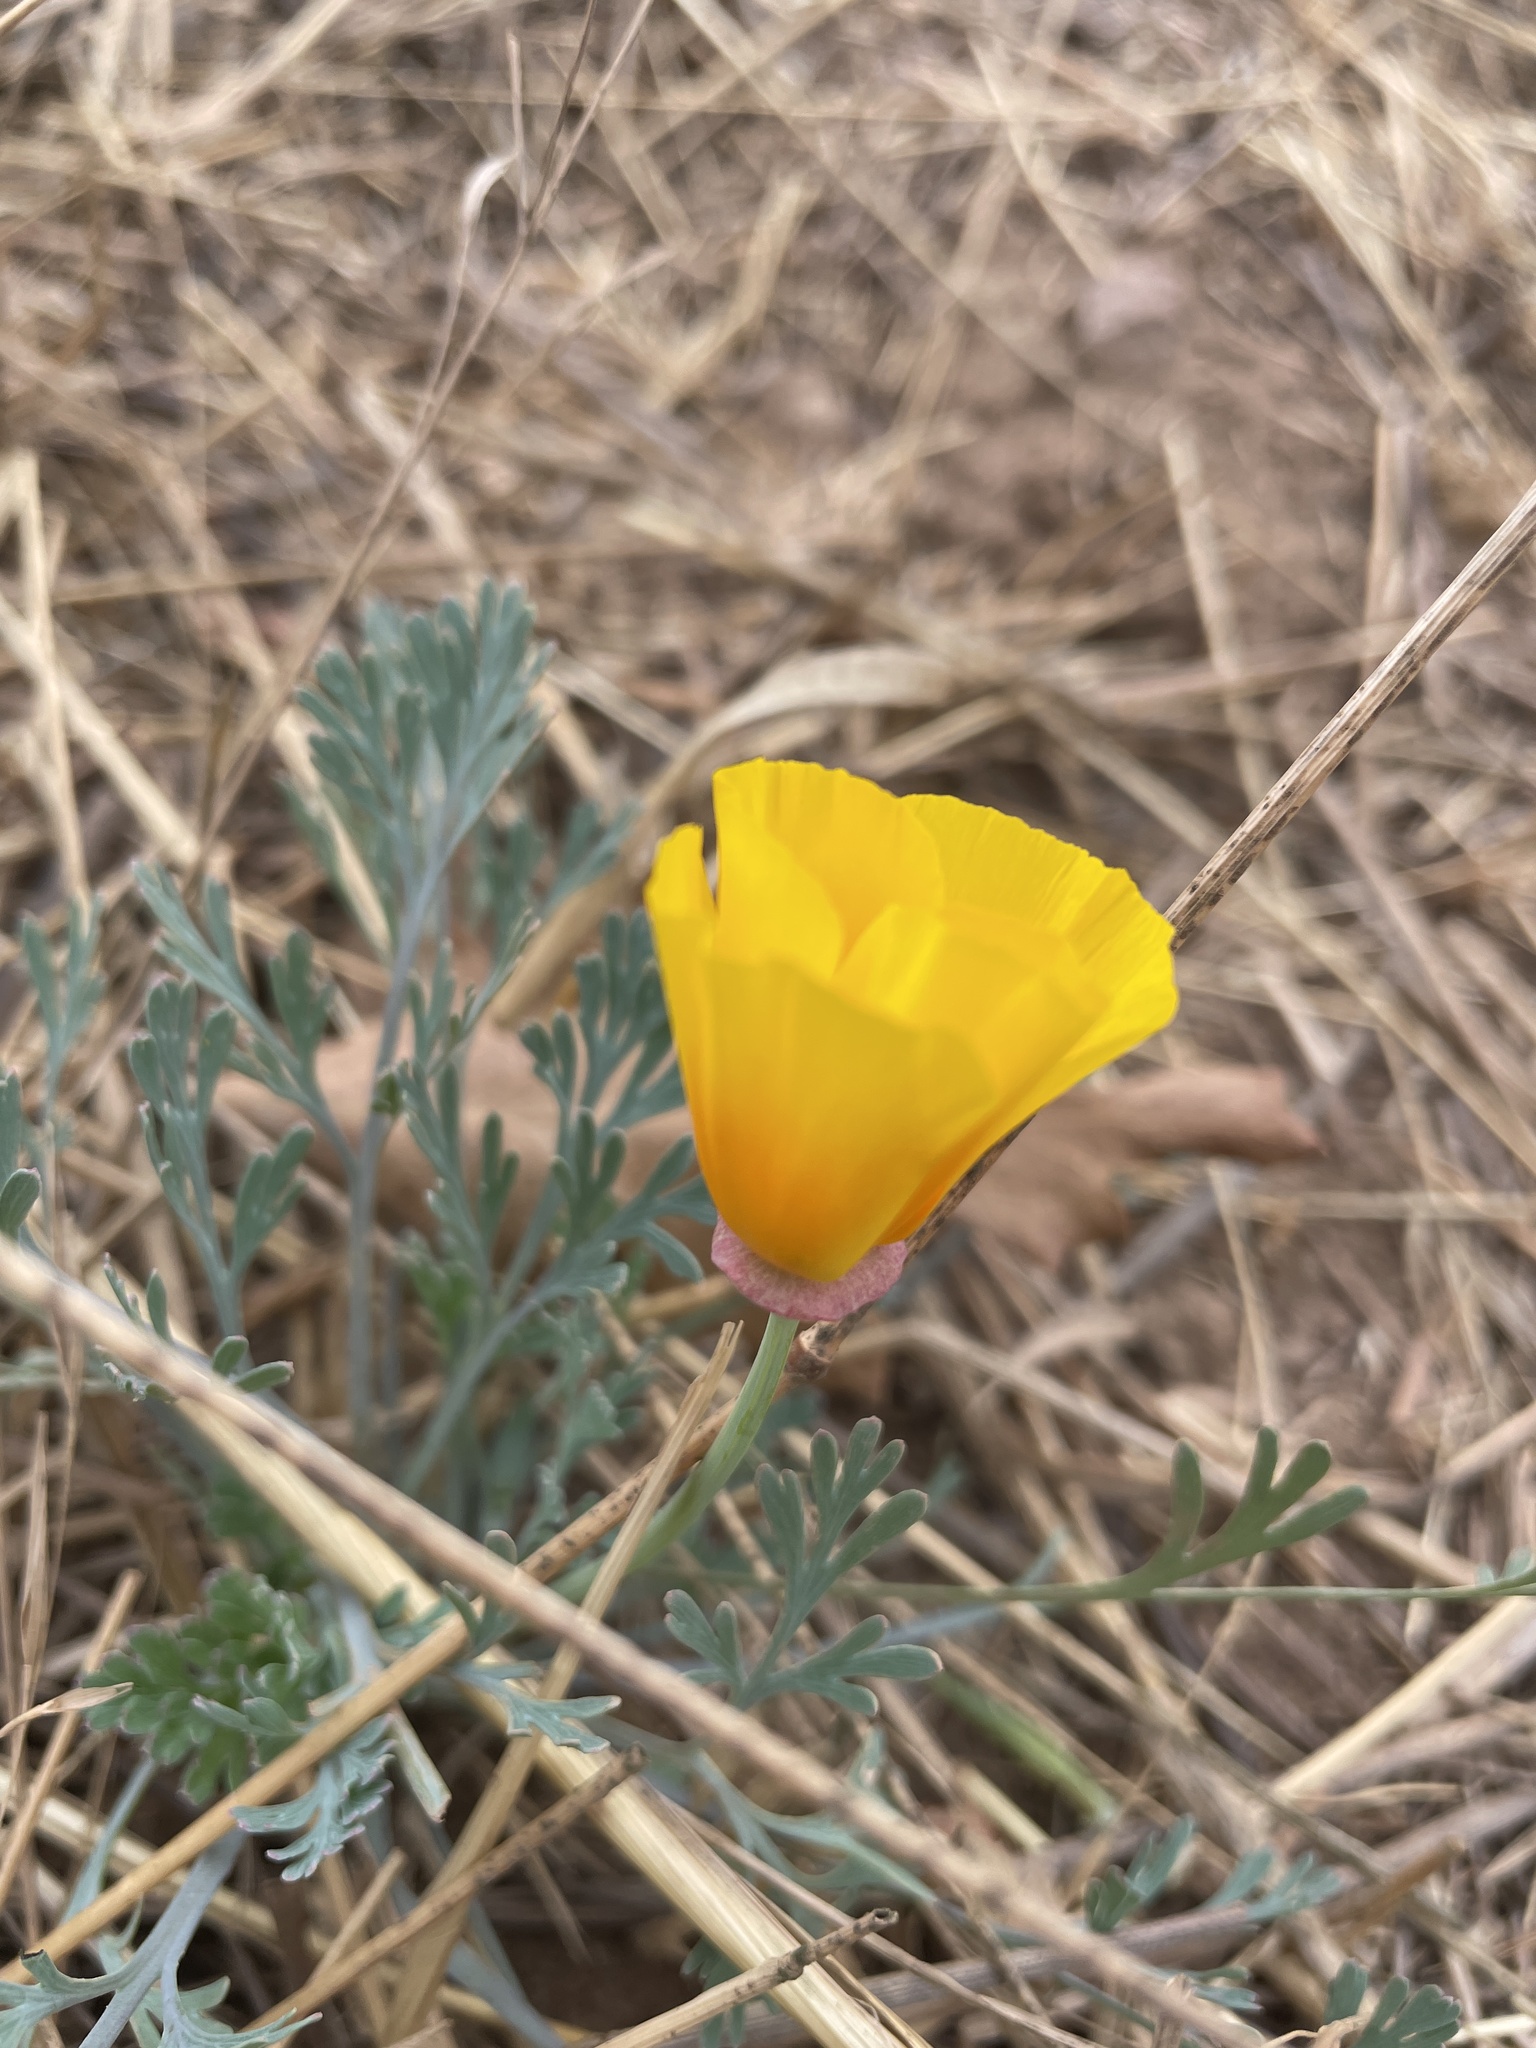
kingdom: Plantae
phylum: Tracheophyta
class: Magnoliopsida
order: Ranunculales
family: Papaveraceae
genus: Eschscholzia
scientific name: Eschscholzia californica
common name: California poppy
